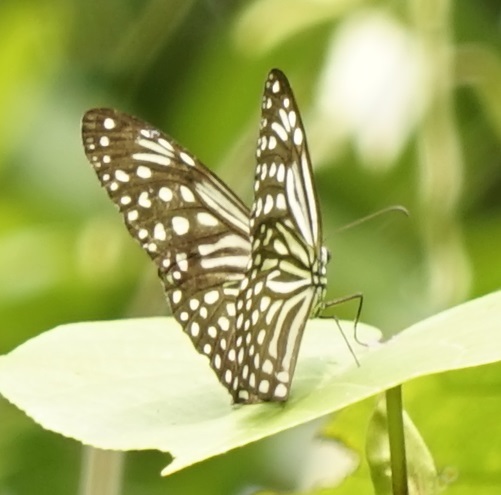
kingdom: Animalia
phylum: Arthropoda
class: Insecta
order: Lepidoptera
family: Nymphalidae
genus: Parantica
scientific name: Parantica agleoides
